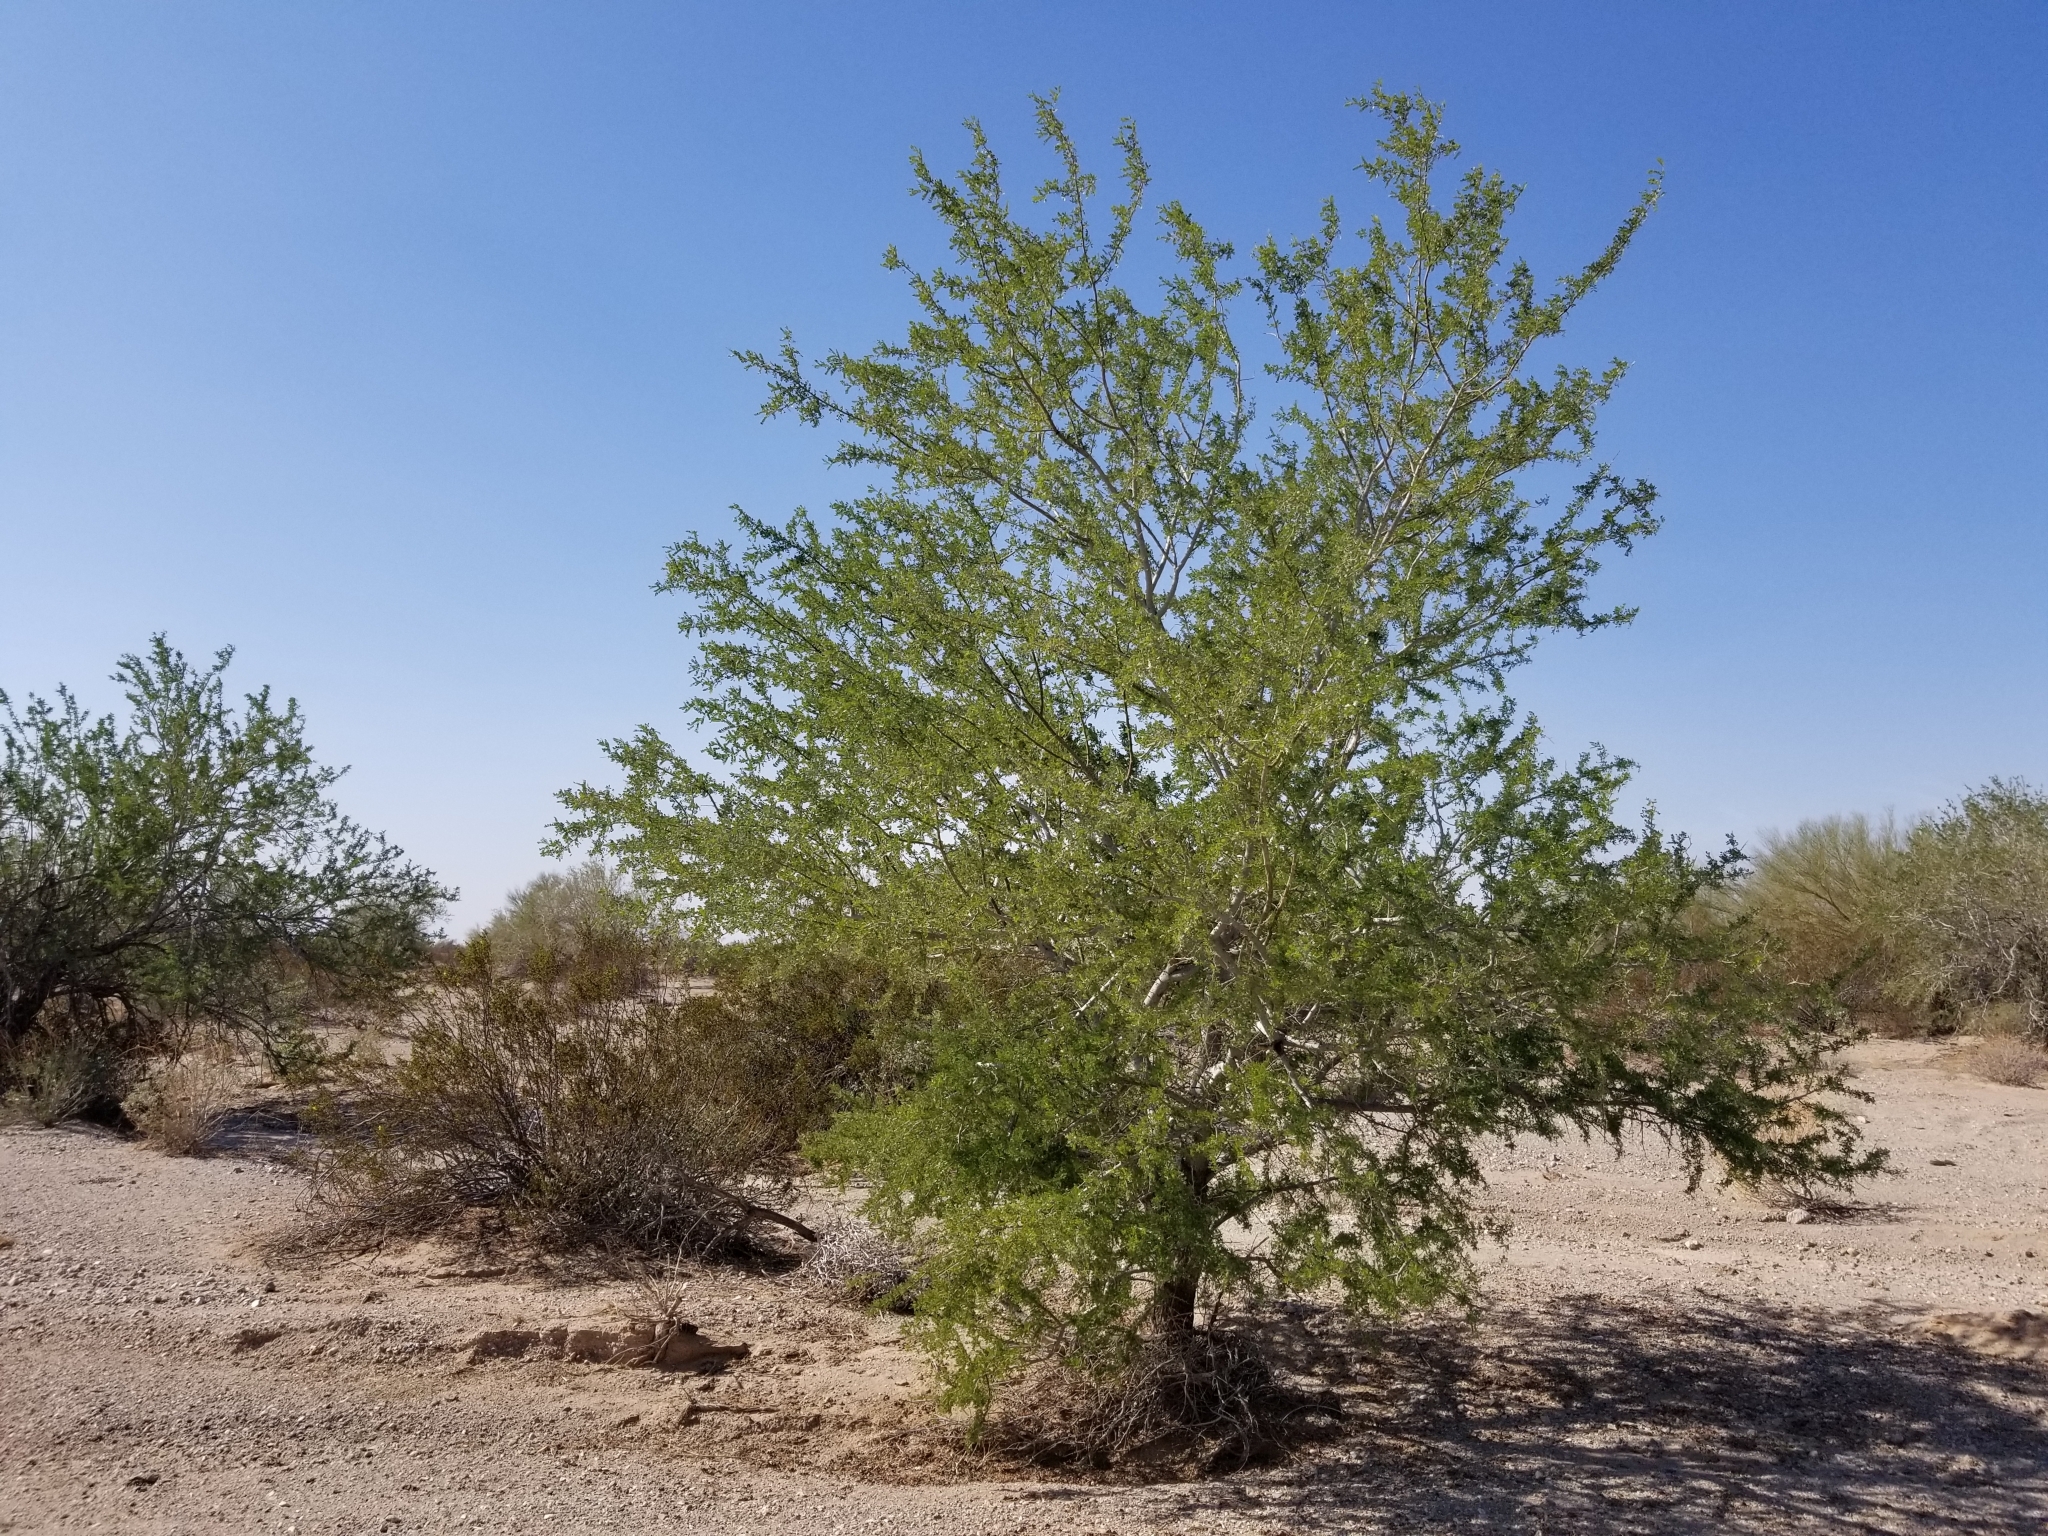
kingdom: Plantae
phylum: Tracheophyta
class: Magnoliopsida
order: Fabales
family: Fabaceae
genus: Olneya
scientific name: Olneya tesota
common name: Desert ironwood
